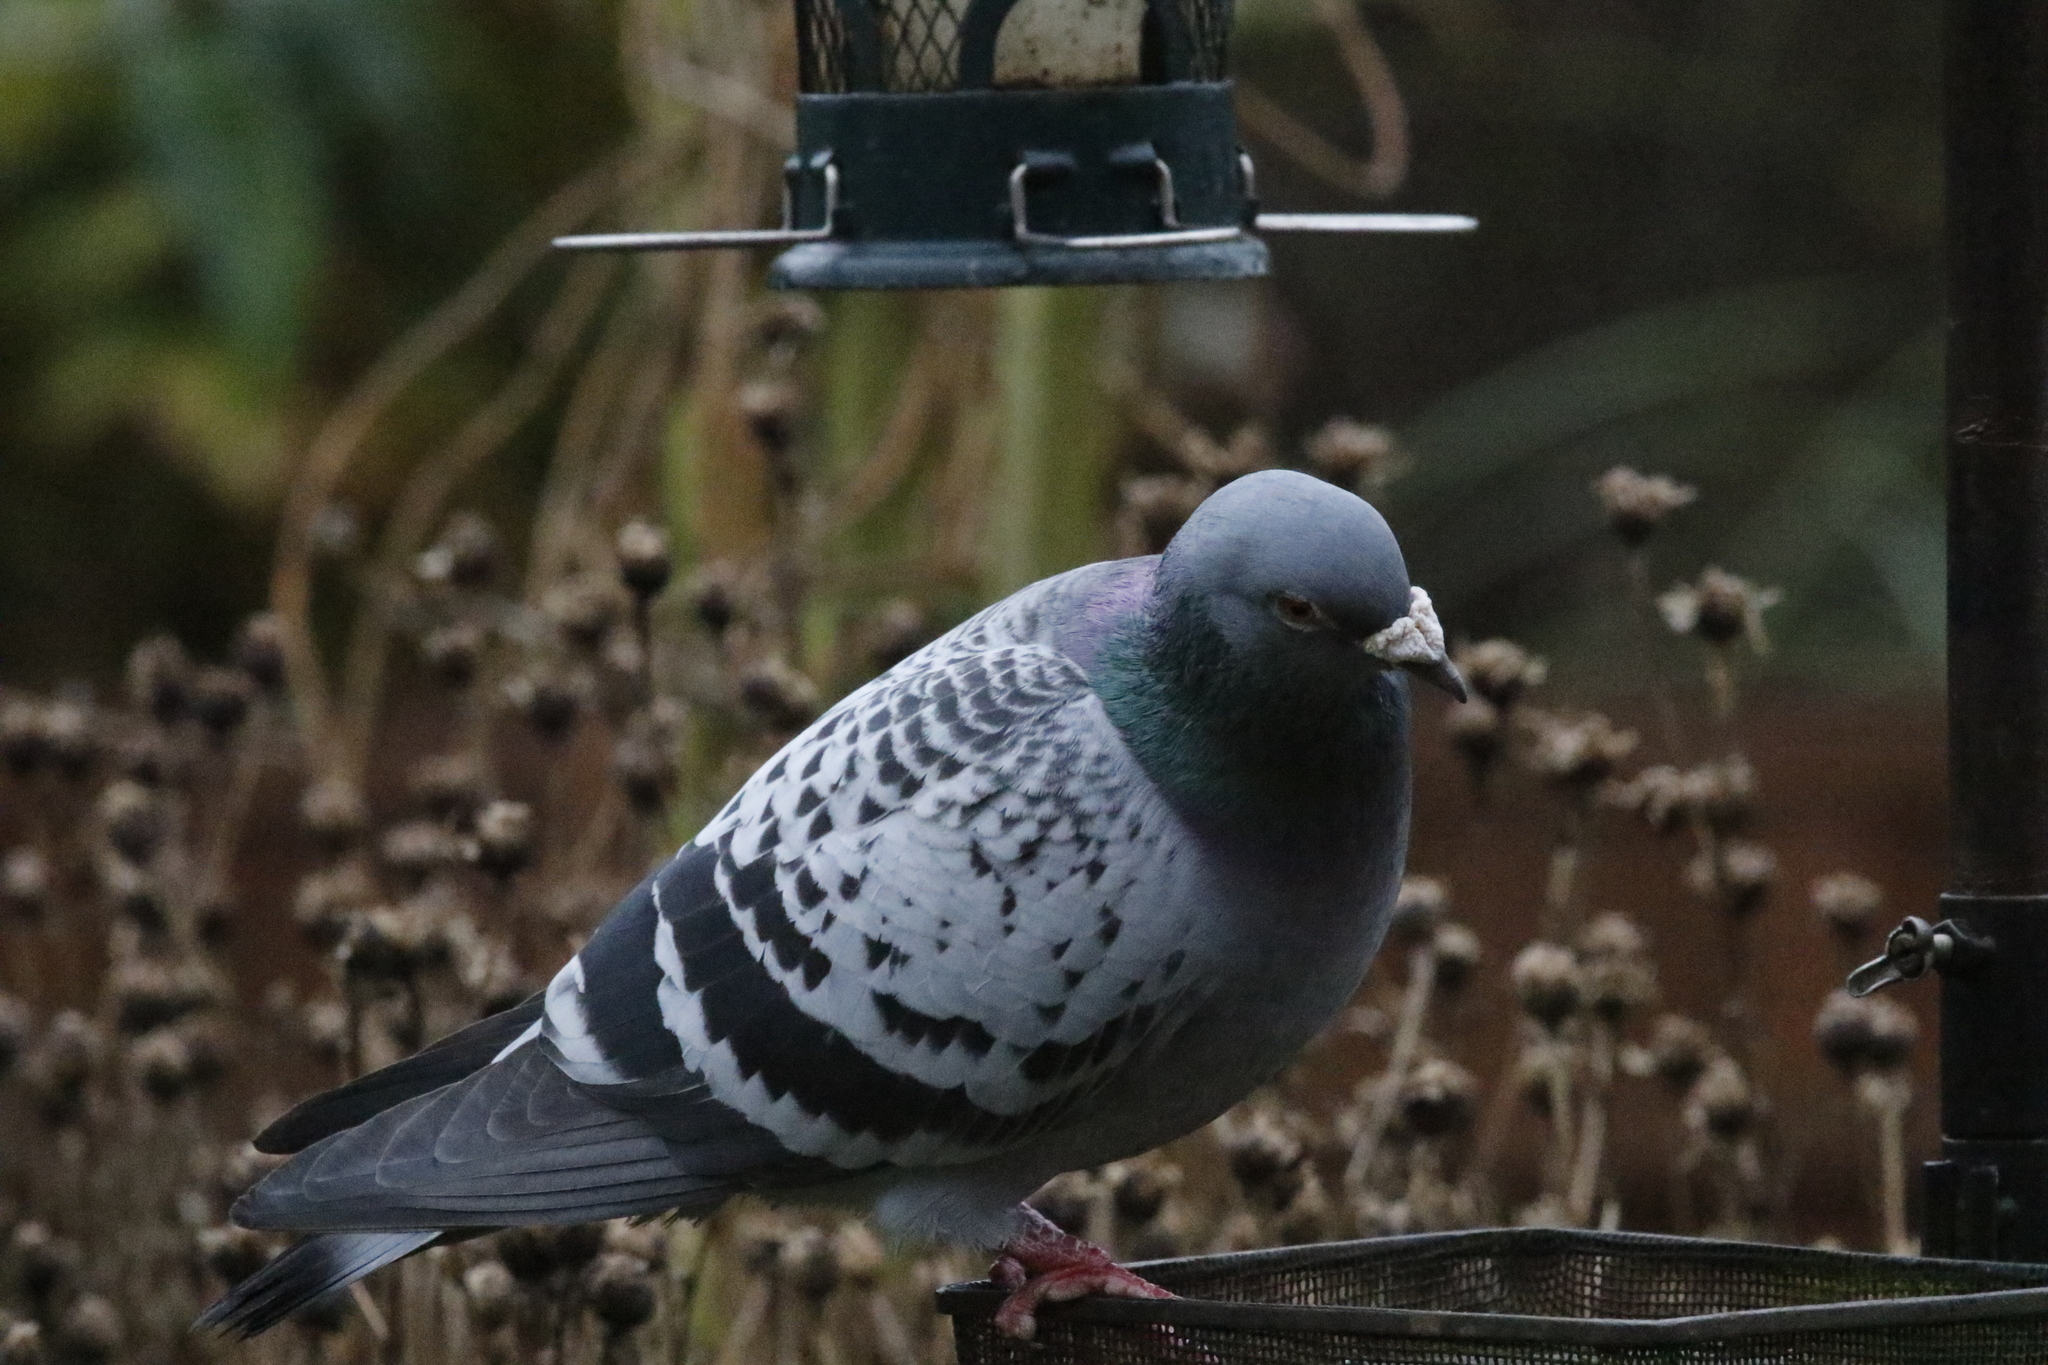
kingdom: Animalia
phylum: Chordata
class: Aves
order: Columbiformes
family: Columbidae
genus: Columba
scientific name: Columba livia
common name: Rock pigeon
